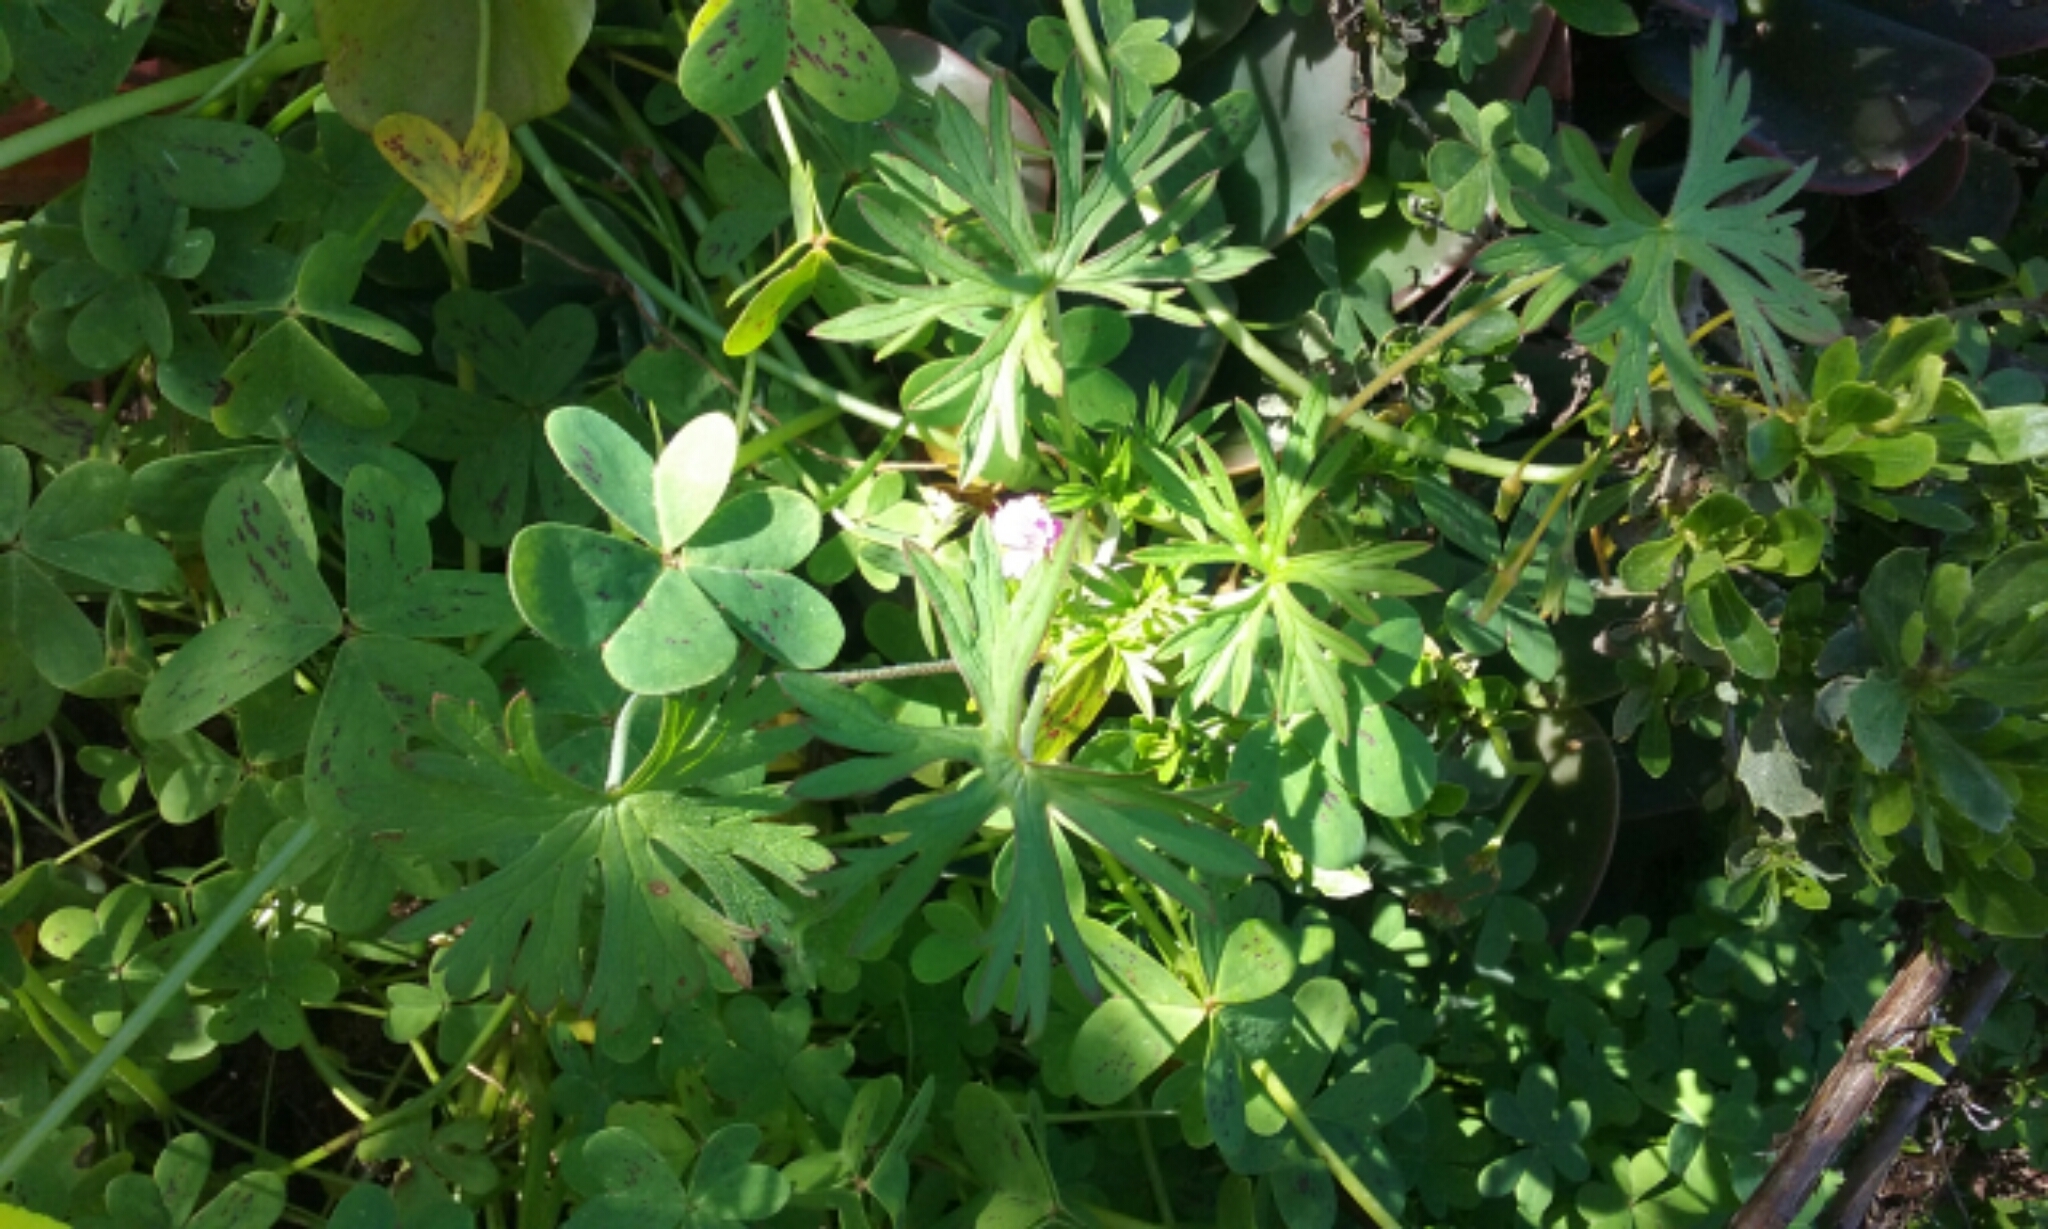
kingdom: Plantae
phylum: Tracheophyta
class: Magnoliopsida
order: Geraniales
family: Geraniaceae
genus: Geranium
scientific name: Geranium dissectum
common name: Cut-leaved crane's-bill
